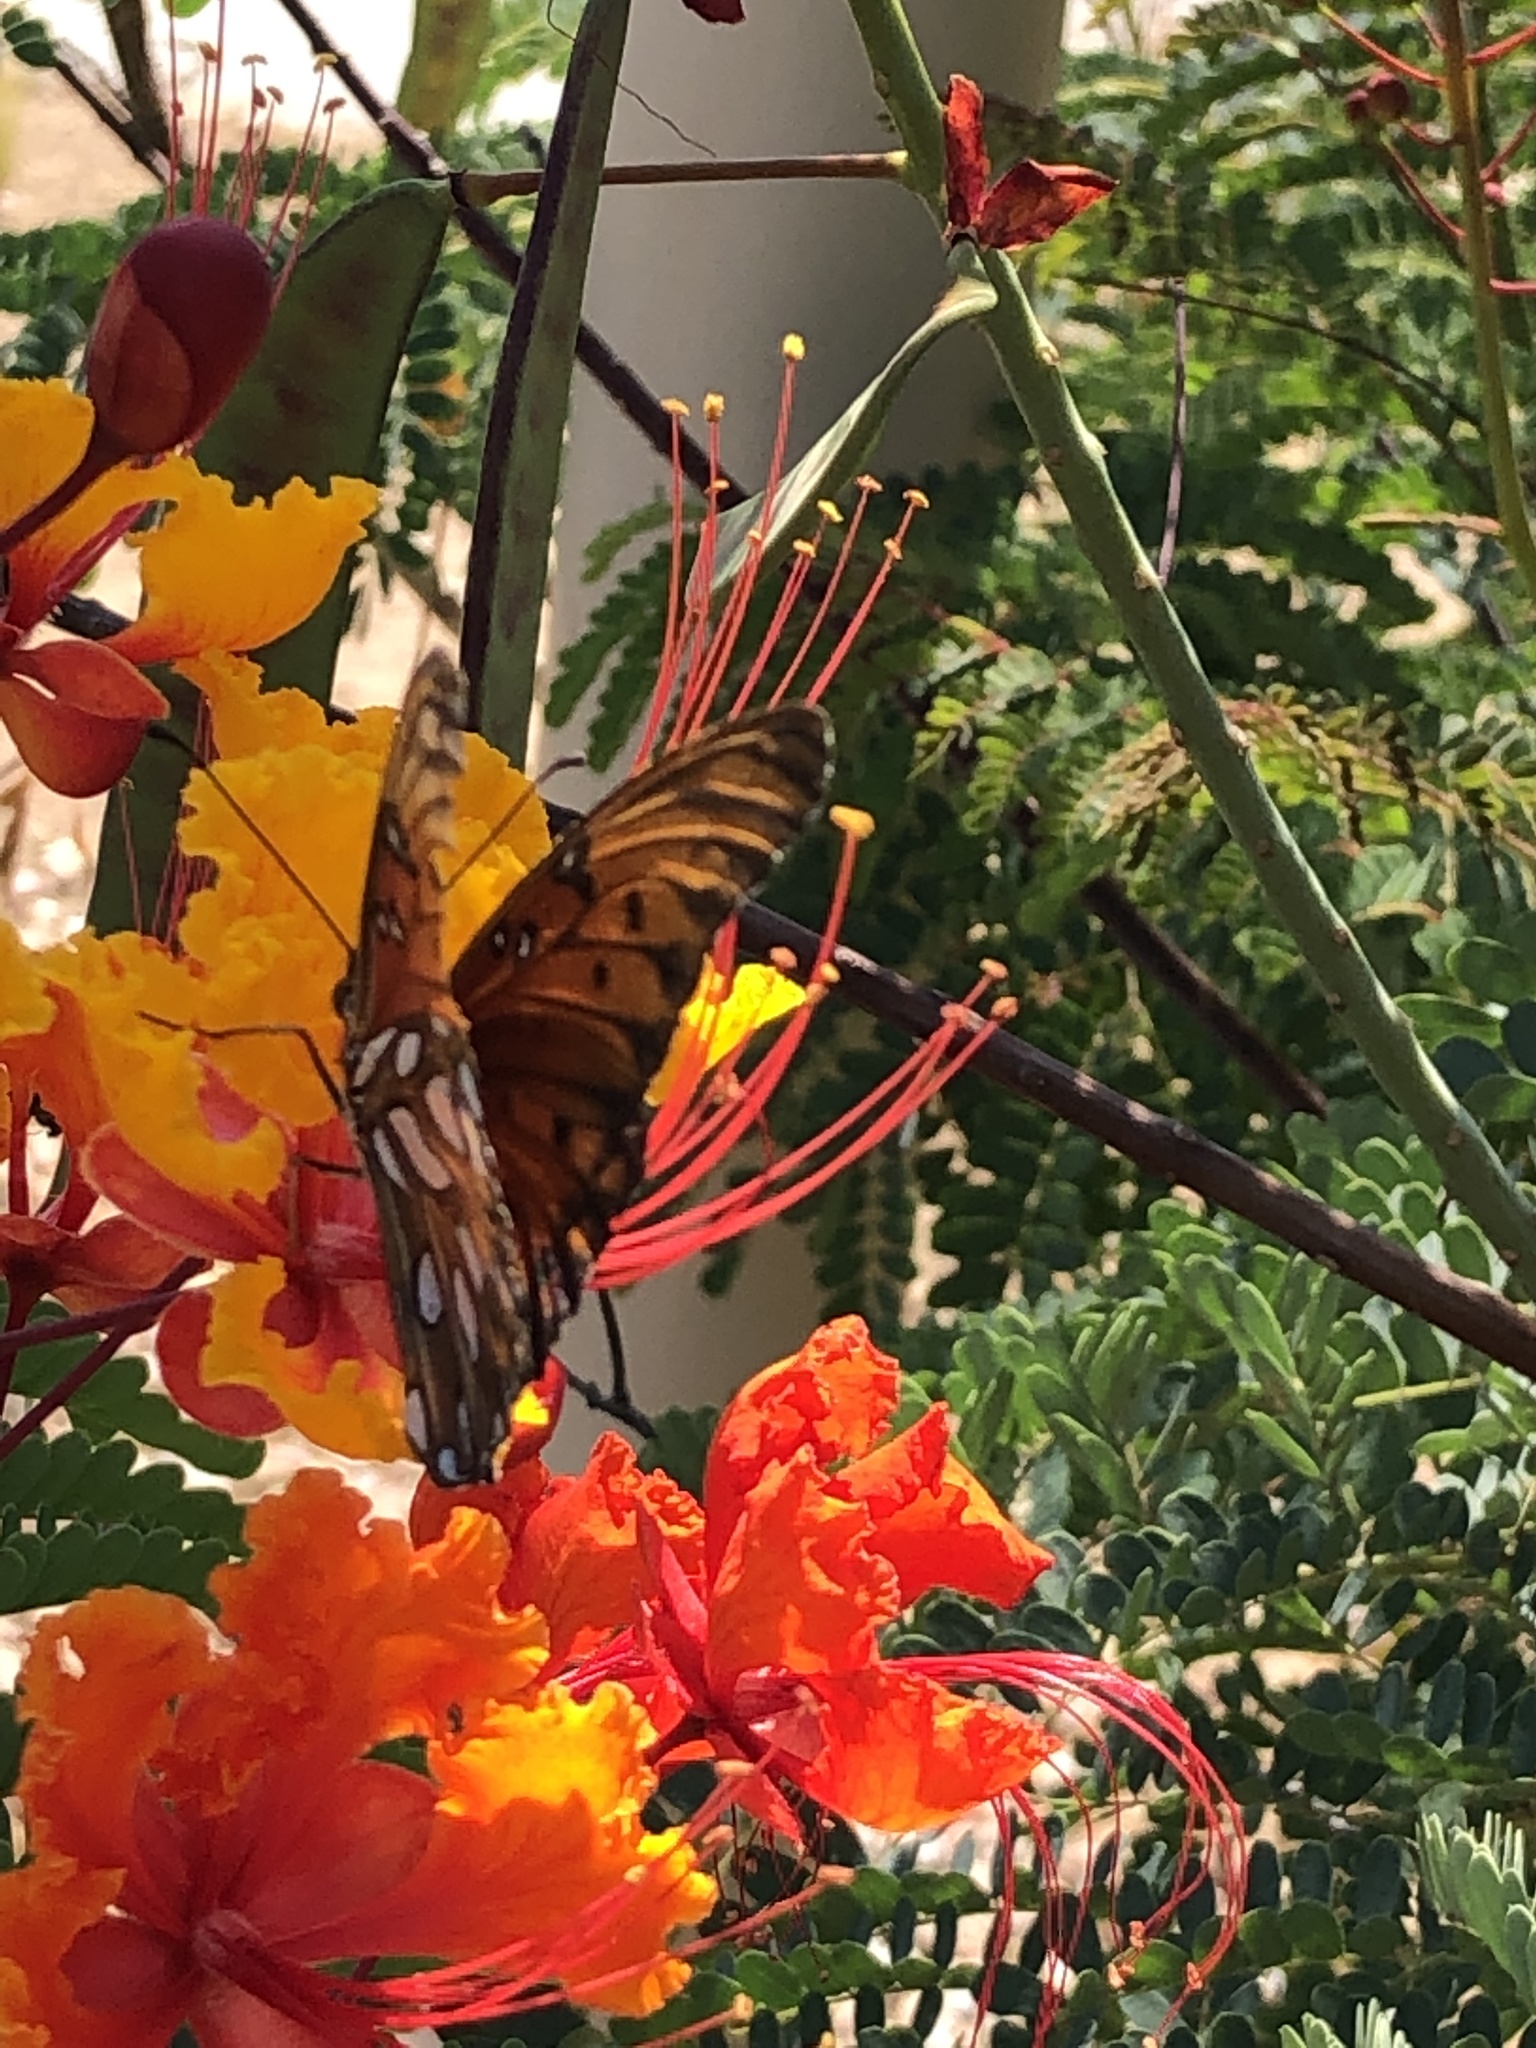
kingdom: Animalia
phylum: Arthropoda
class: Insecta
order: Lepidoptera
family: Nymphalidae
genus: Dione
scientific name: Dione vanillae
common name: Gulf fritillary
